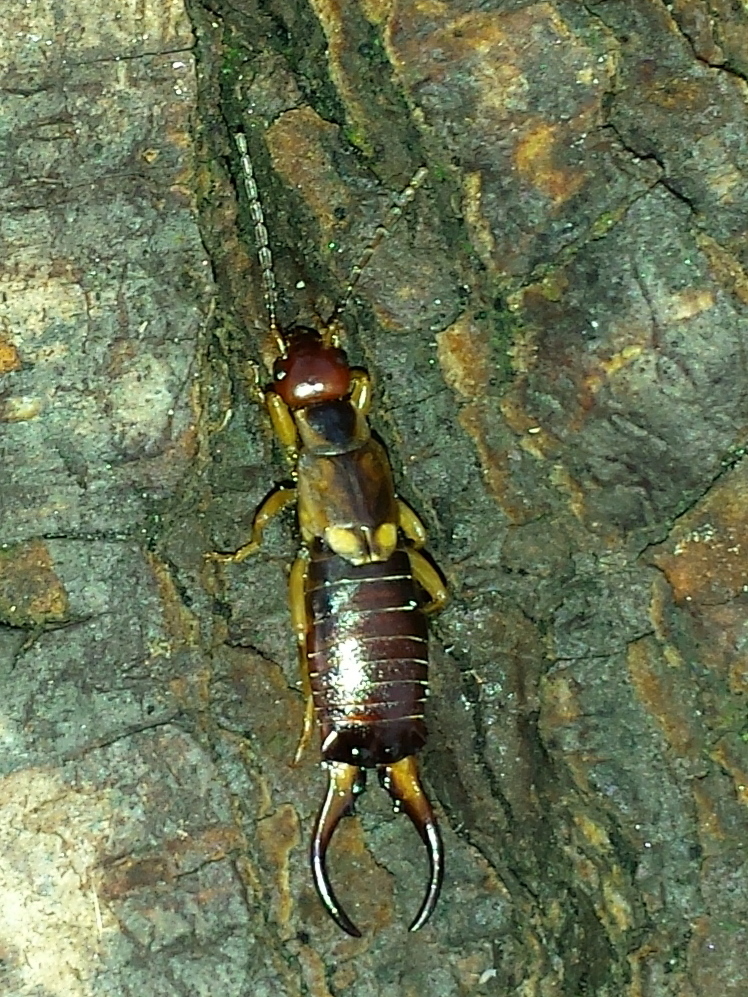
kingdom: Animalia
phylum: Arthropoda
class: Insecta
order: Dermaptera
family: Forficulidae
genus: Forficula
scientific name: Forficula
